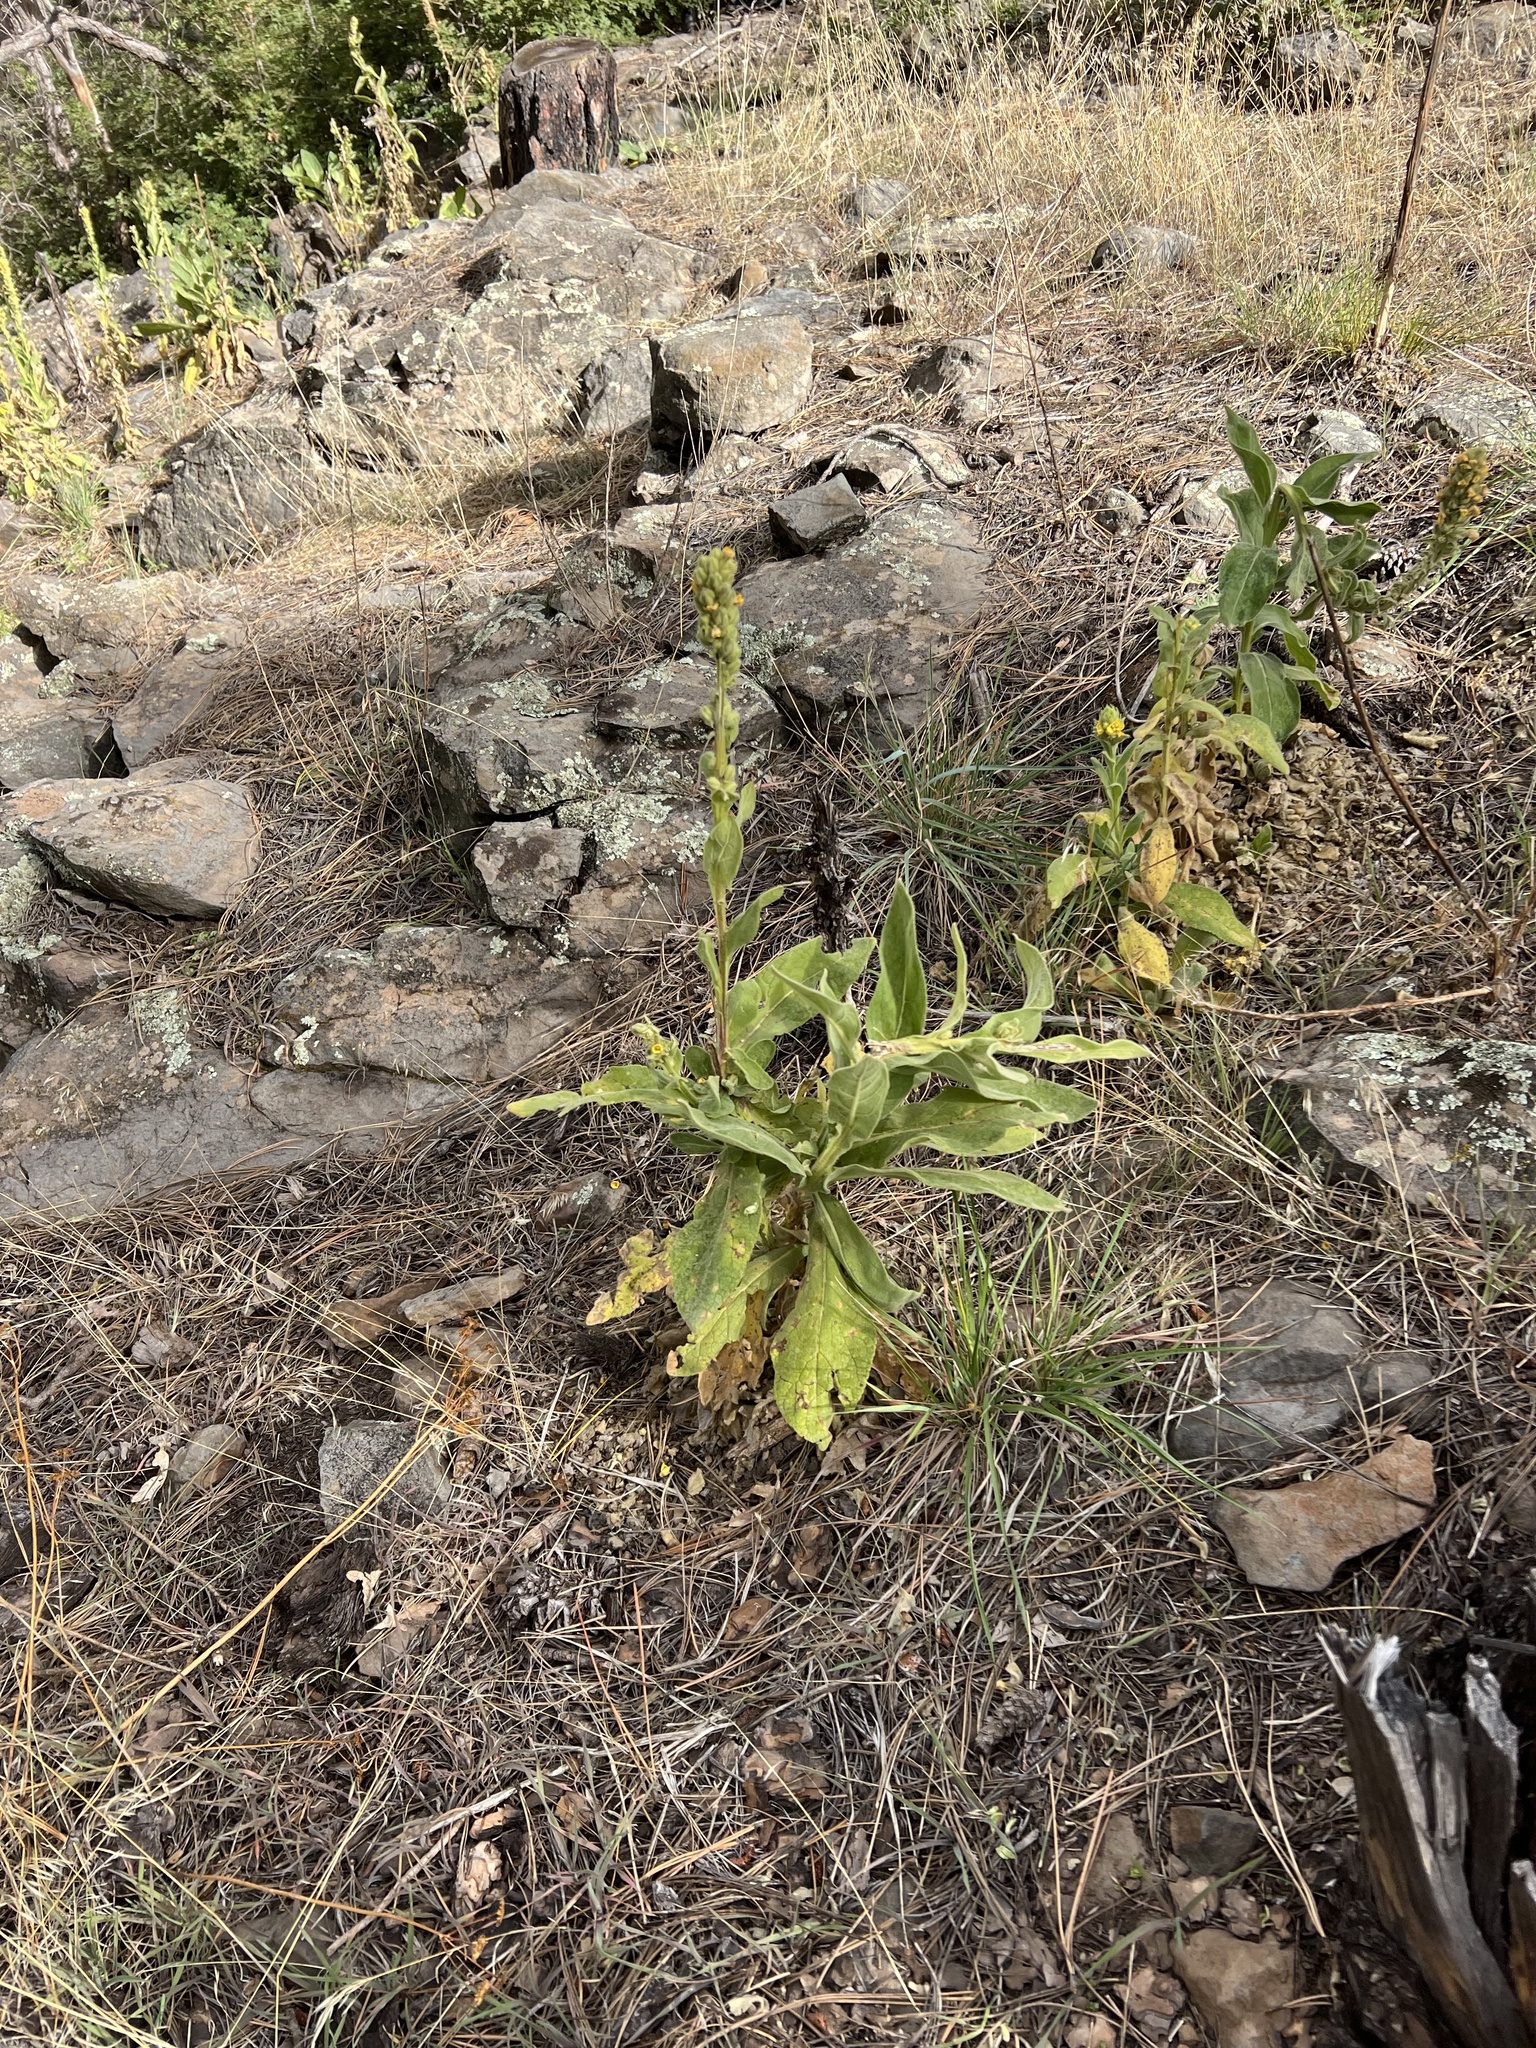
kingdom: Plantae
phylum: Tracheophyta
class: Magnoliopsida
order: Lamiales
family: Scrophulariaceae
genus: Verbascum
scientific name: Verbascum thapsus
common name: Common mullein
